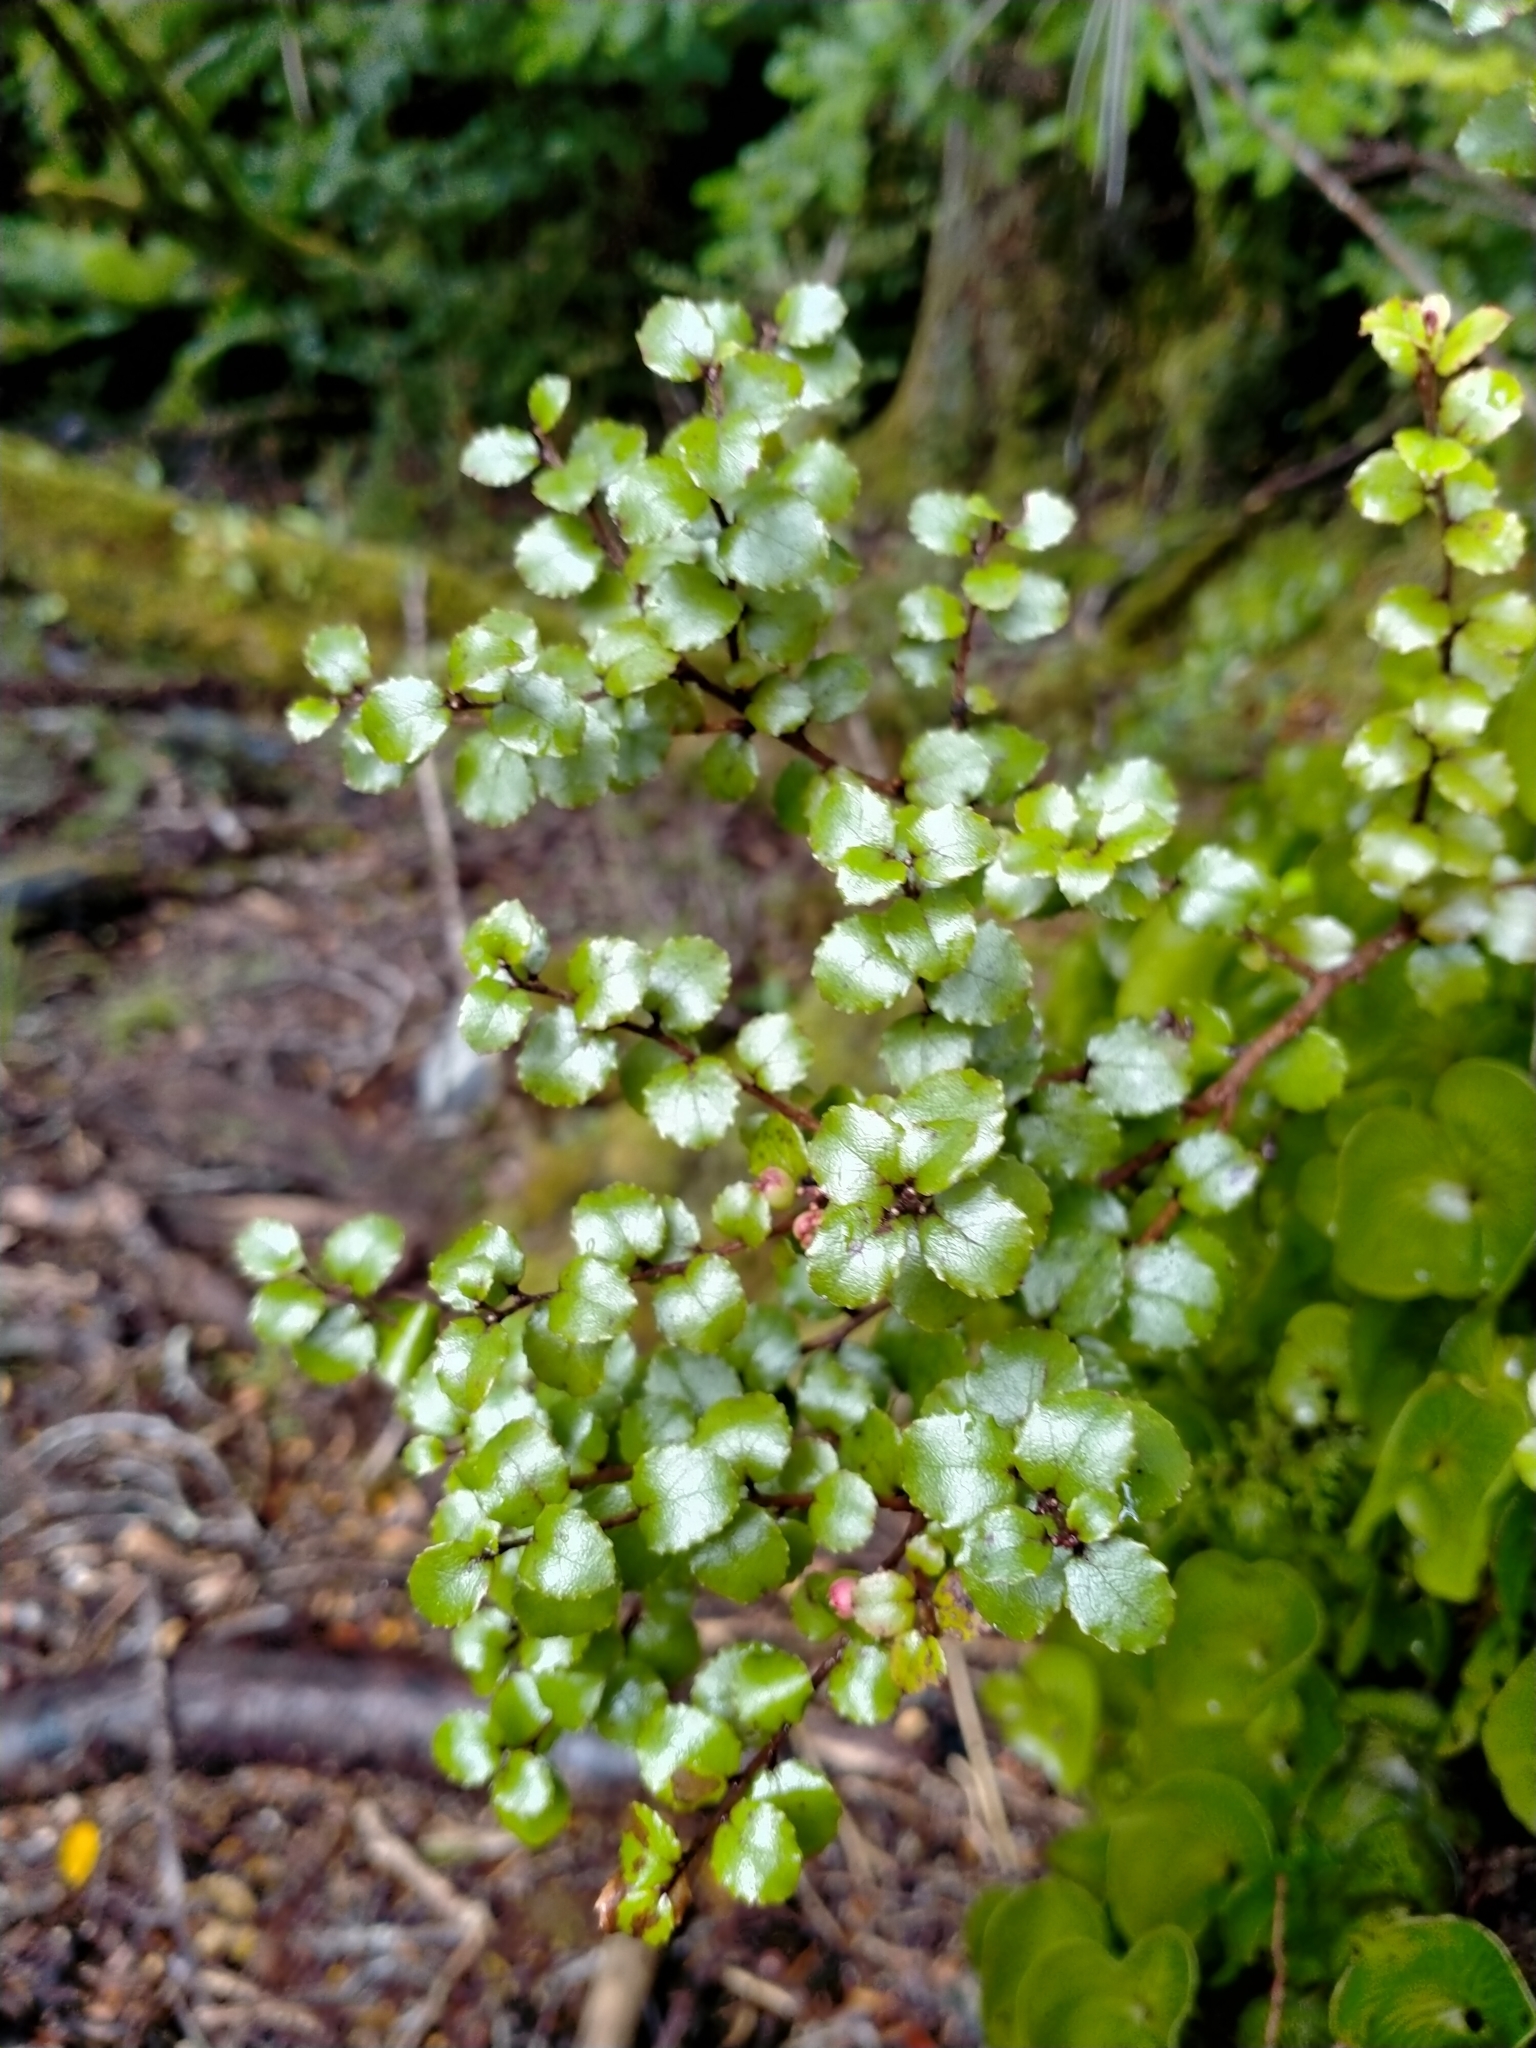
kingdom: Plantae
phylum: Tracheophyta
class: Magnoliopsida
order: Ericales
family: Ericaceae
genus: Gaultheria
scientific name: Gaultheria antipoda
